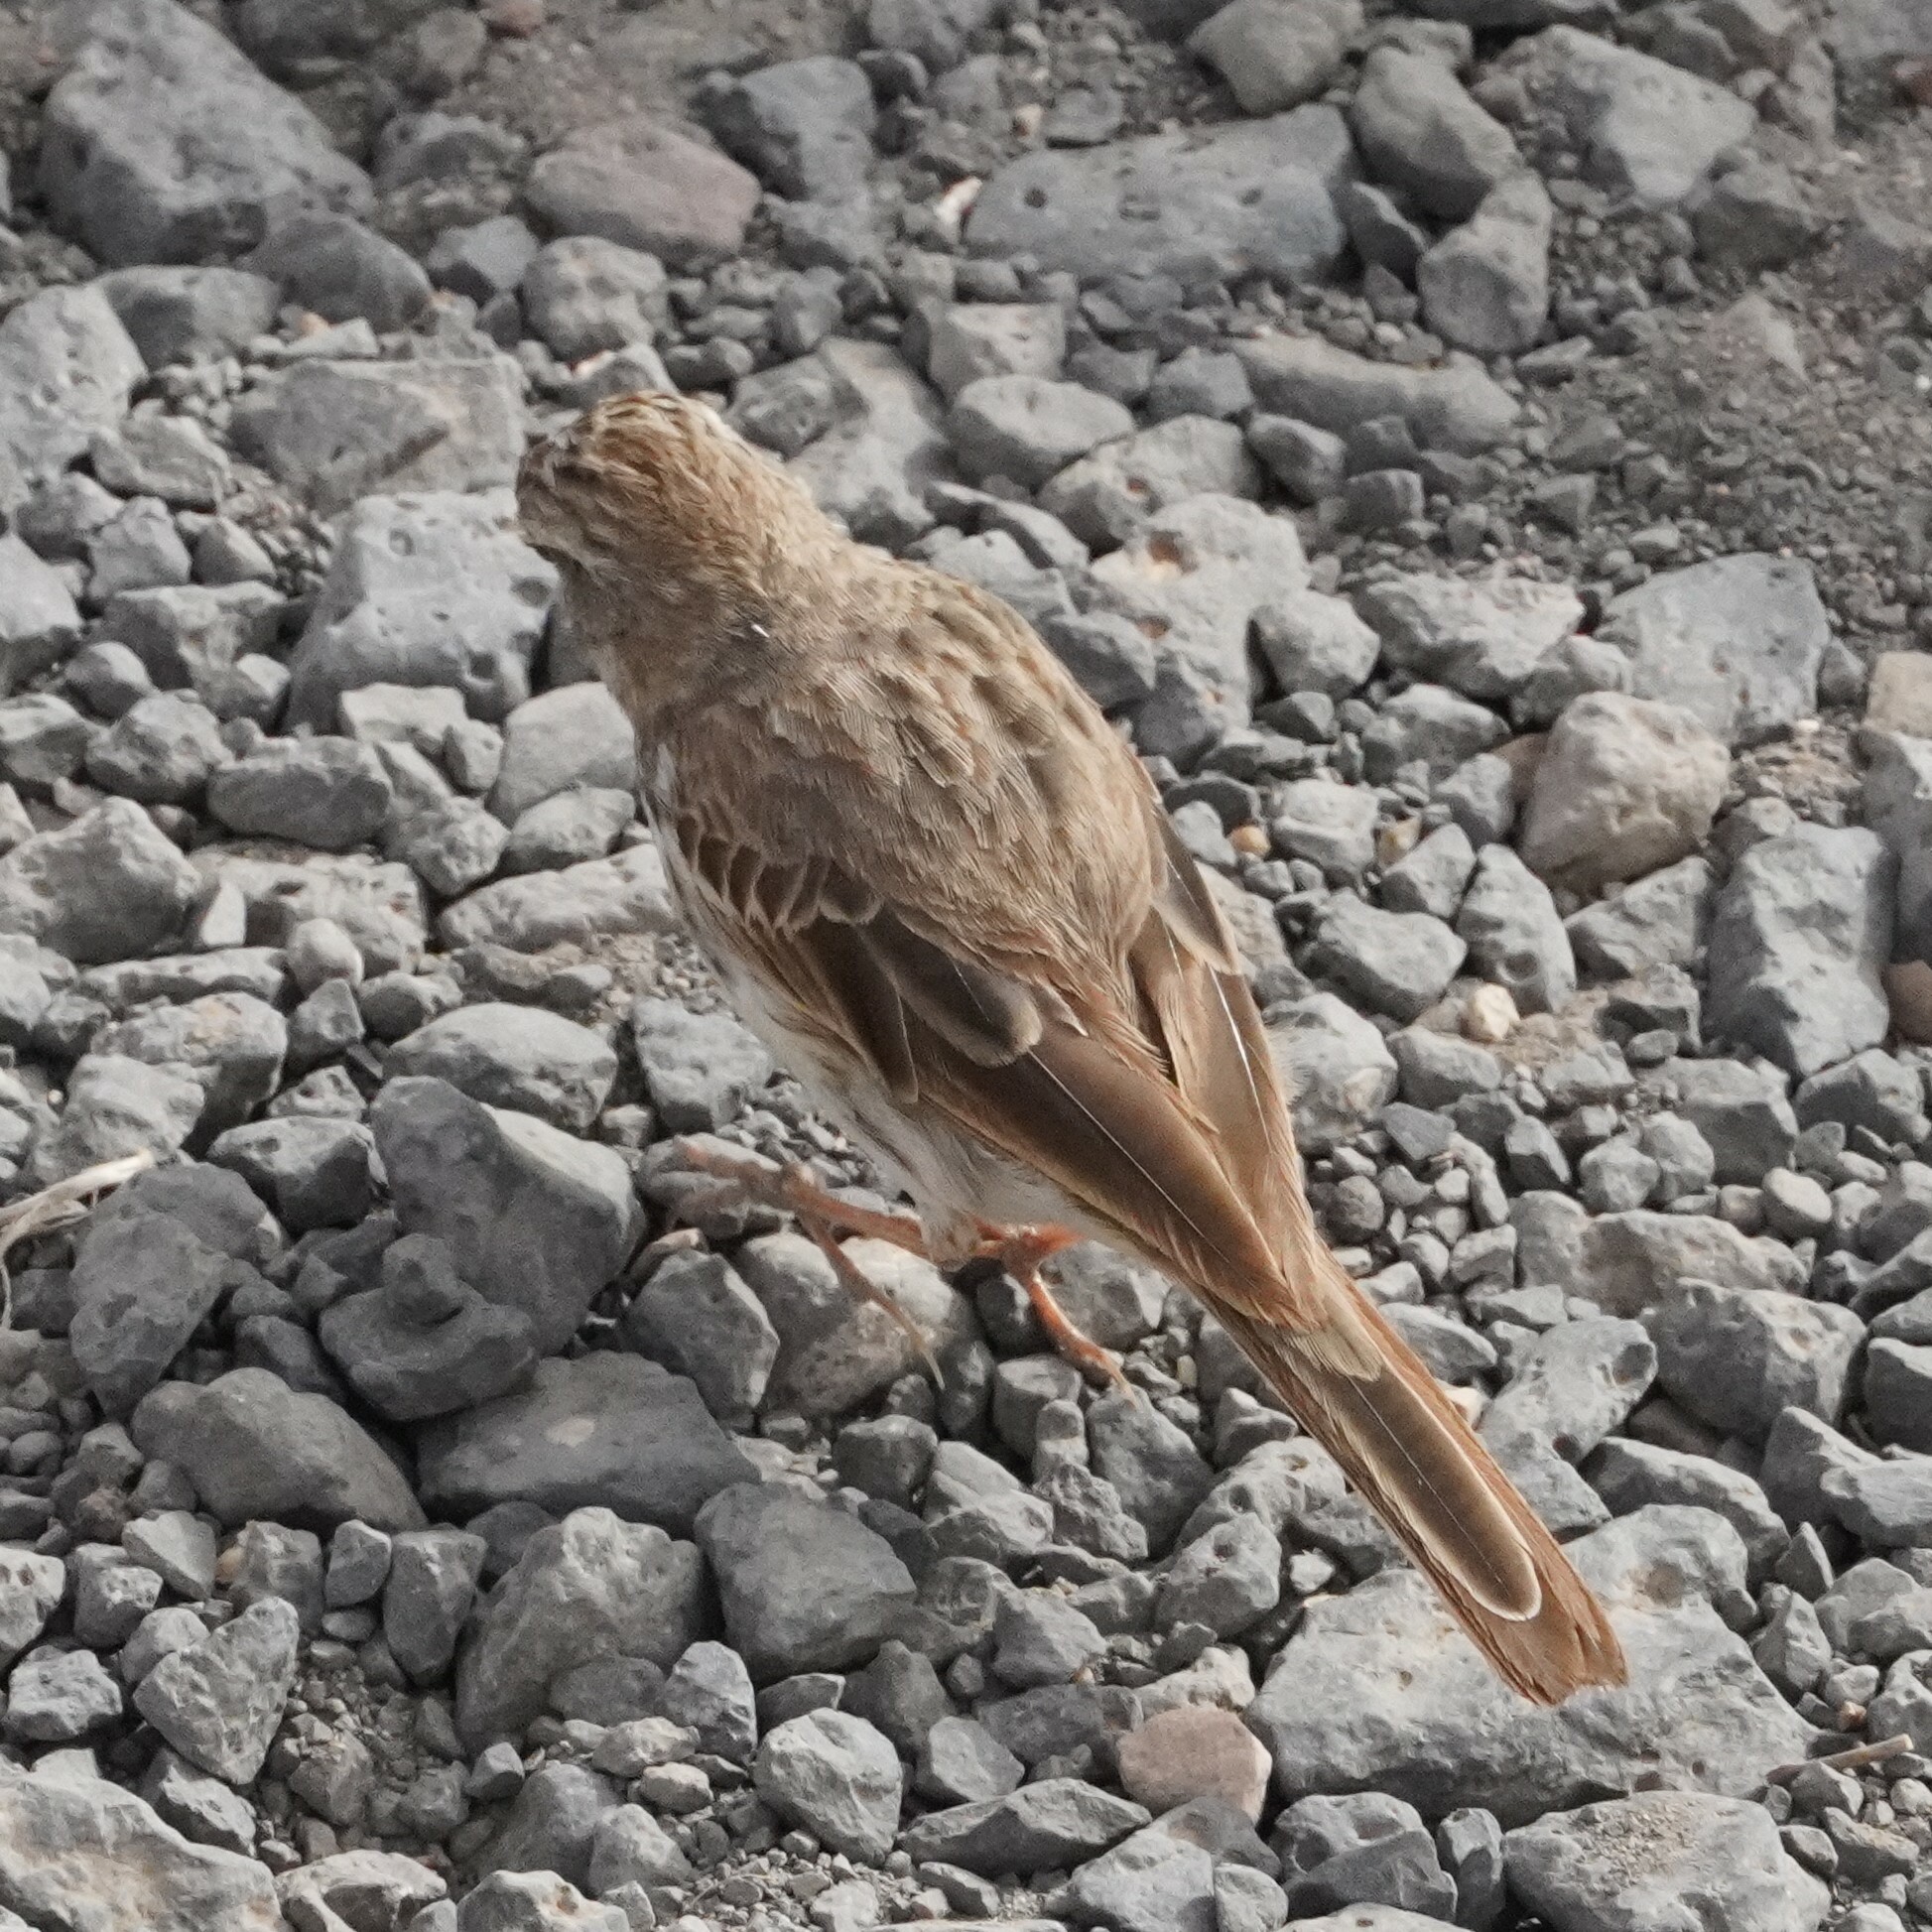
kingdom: Animalia
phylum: Chordata
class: Aves
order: Passeriformes
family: Motacillidae
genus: Anthus
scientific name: Anthus berthelotii
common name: Berthelot's pipit
